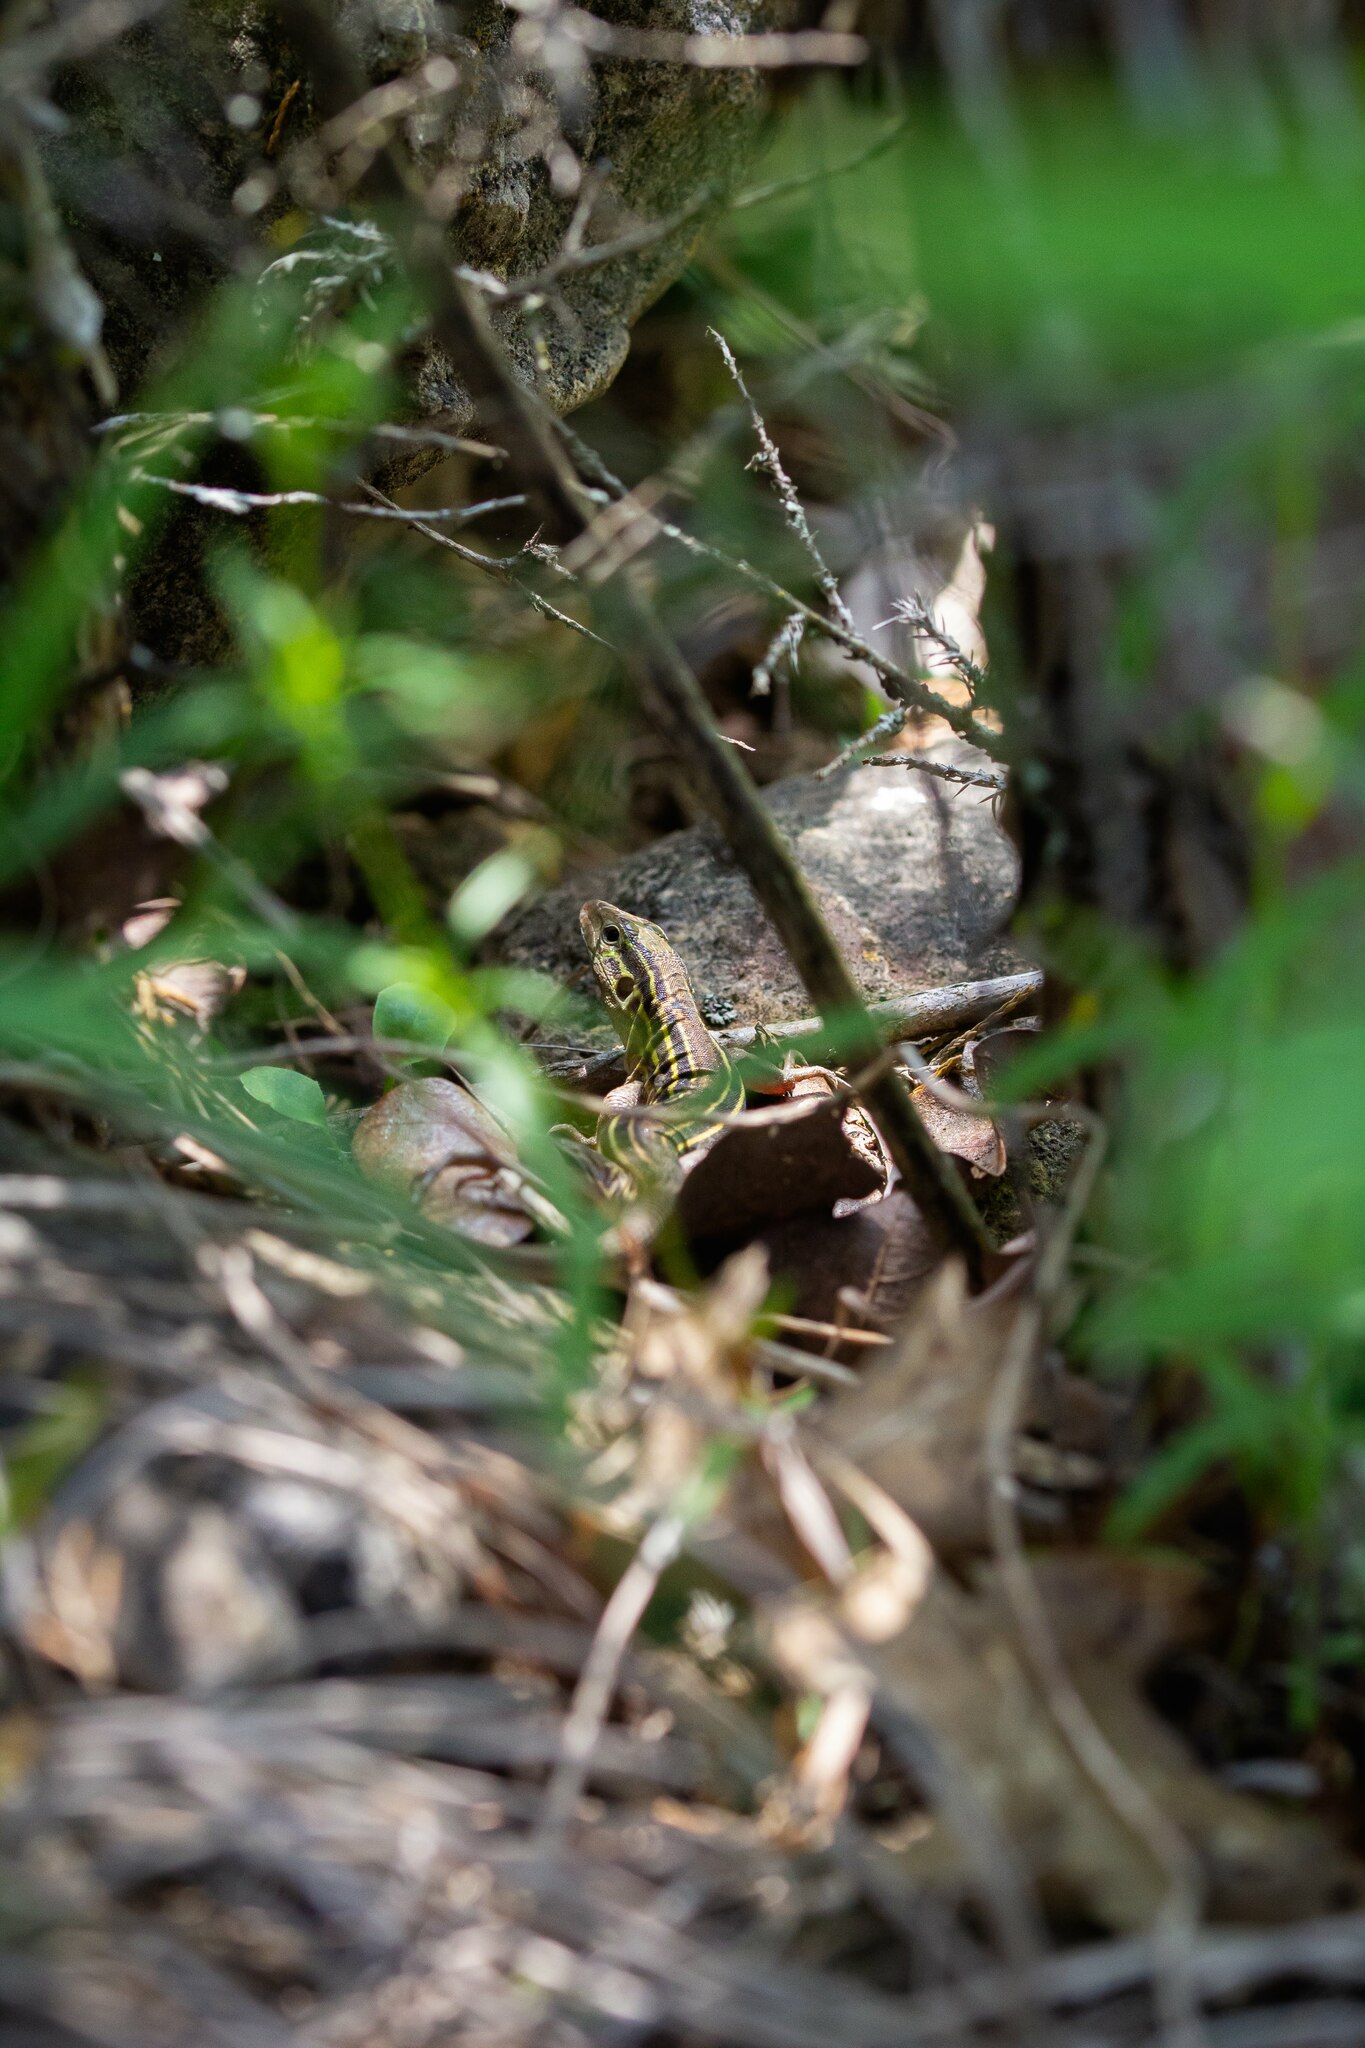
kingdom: Animalia
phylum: Chordata
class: Squamata
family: Teiidae
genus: Aspidoscelis
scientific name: Aspidoscelis sexlineatus
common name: Six-lined racerunner
